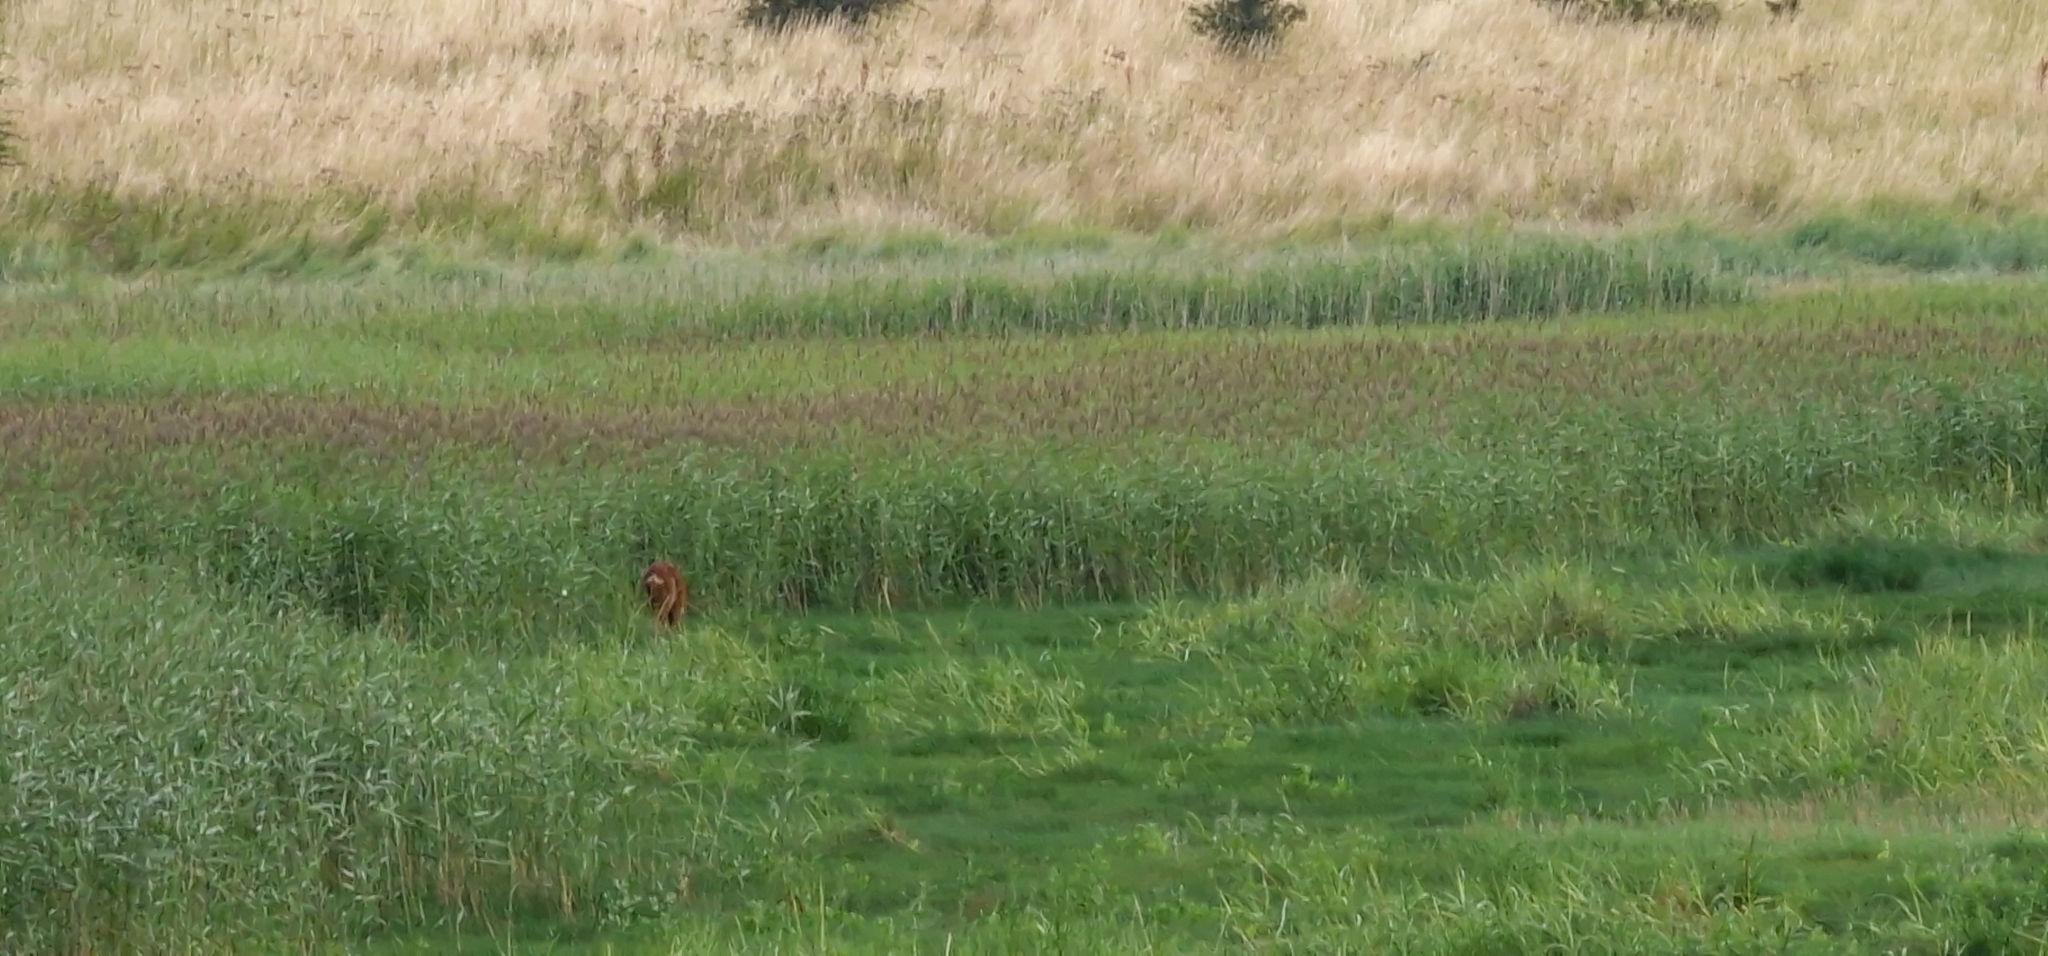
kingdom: Animalia
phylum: Chordata
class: Mammalia
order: Artiodactyla
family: Cervidae
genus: Capreolus
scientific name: Capreolus capreolus
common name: Western roe deer
